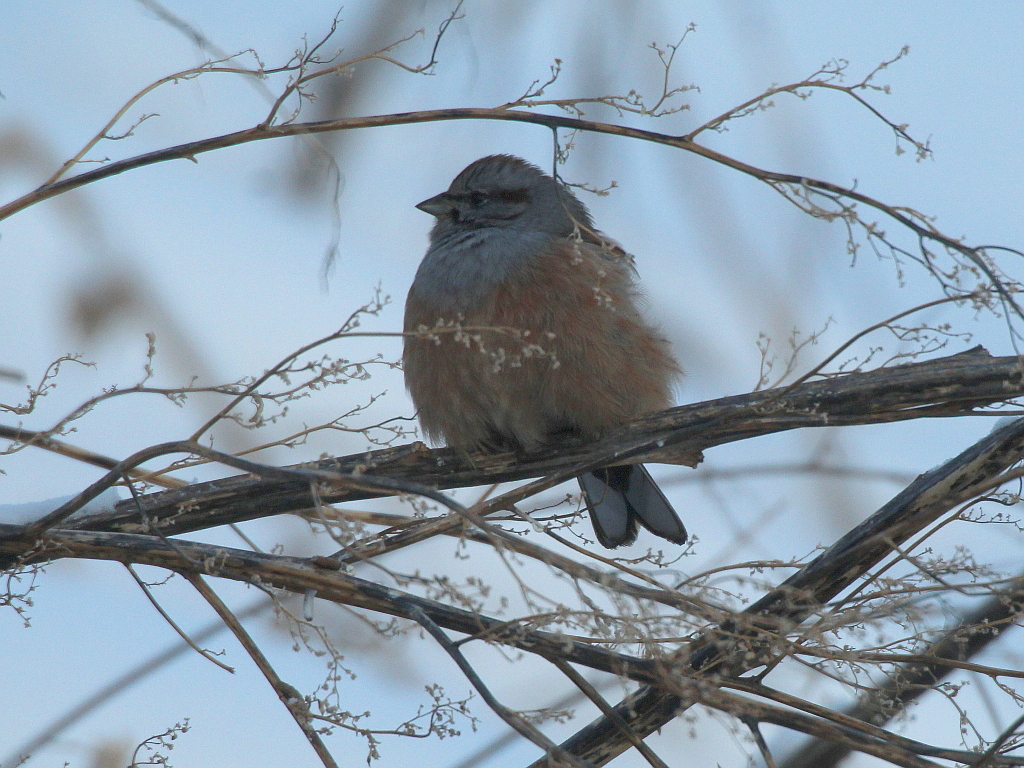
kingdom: Animalia
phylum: Chordata
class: Aves
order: Passeriformes
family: Emberizidae
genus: Emberiza
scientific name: Emberiza godlewskii
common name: Godlewski's bunting
